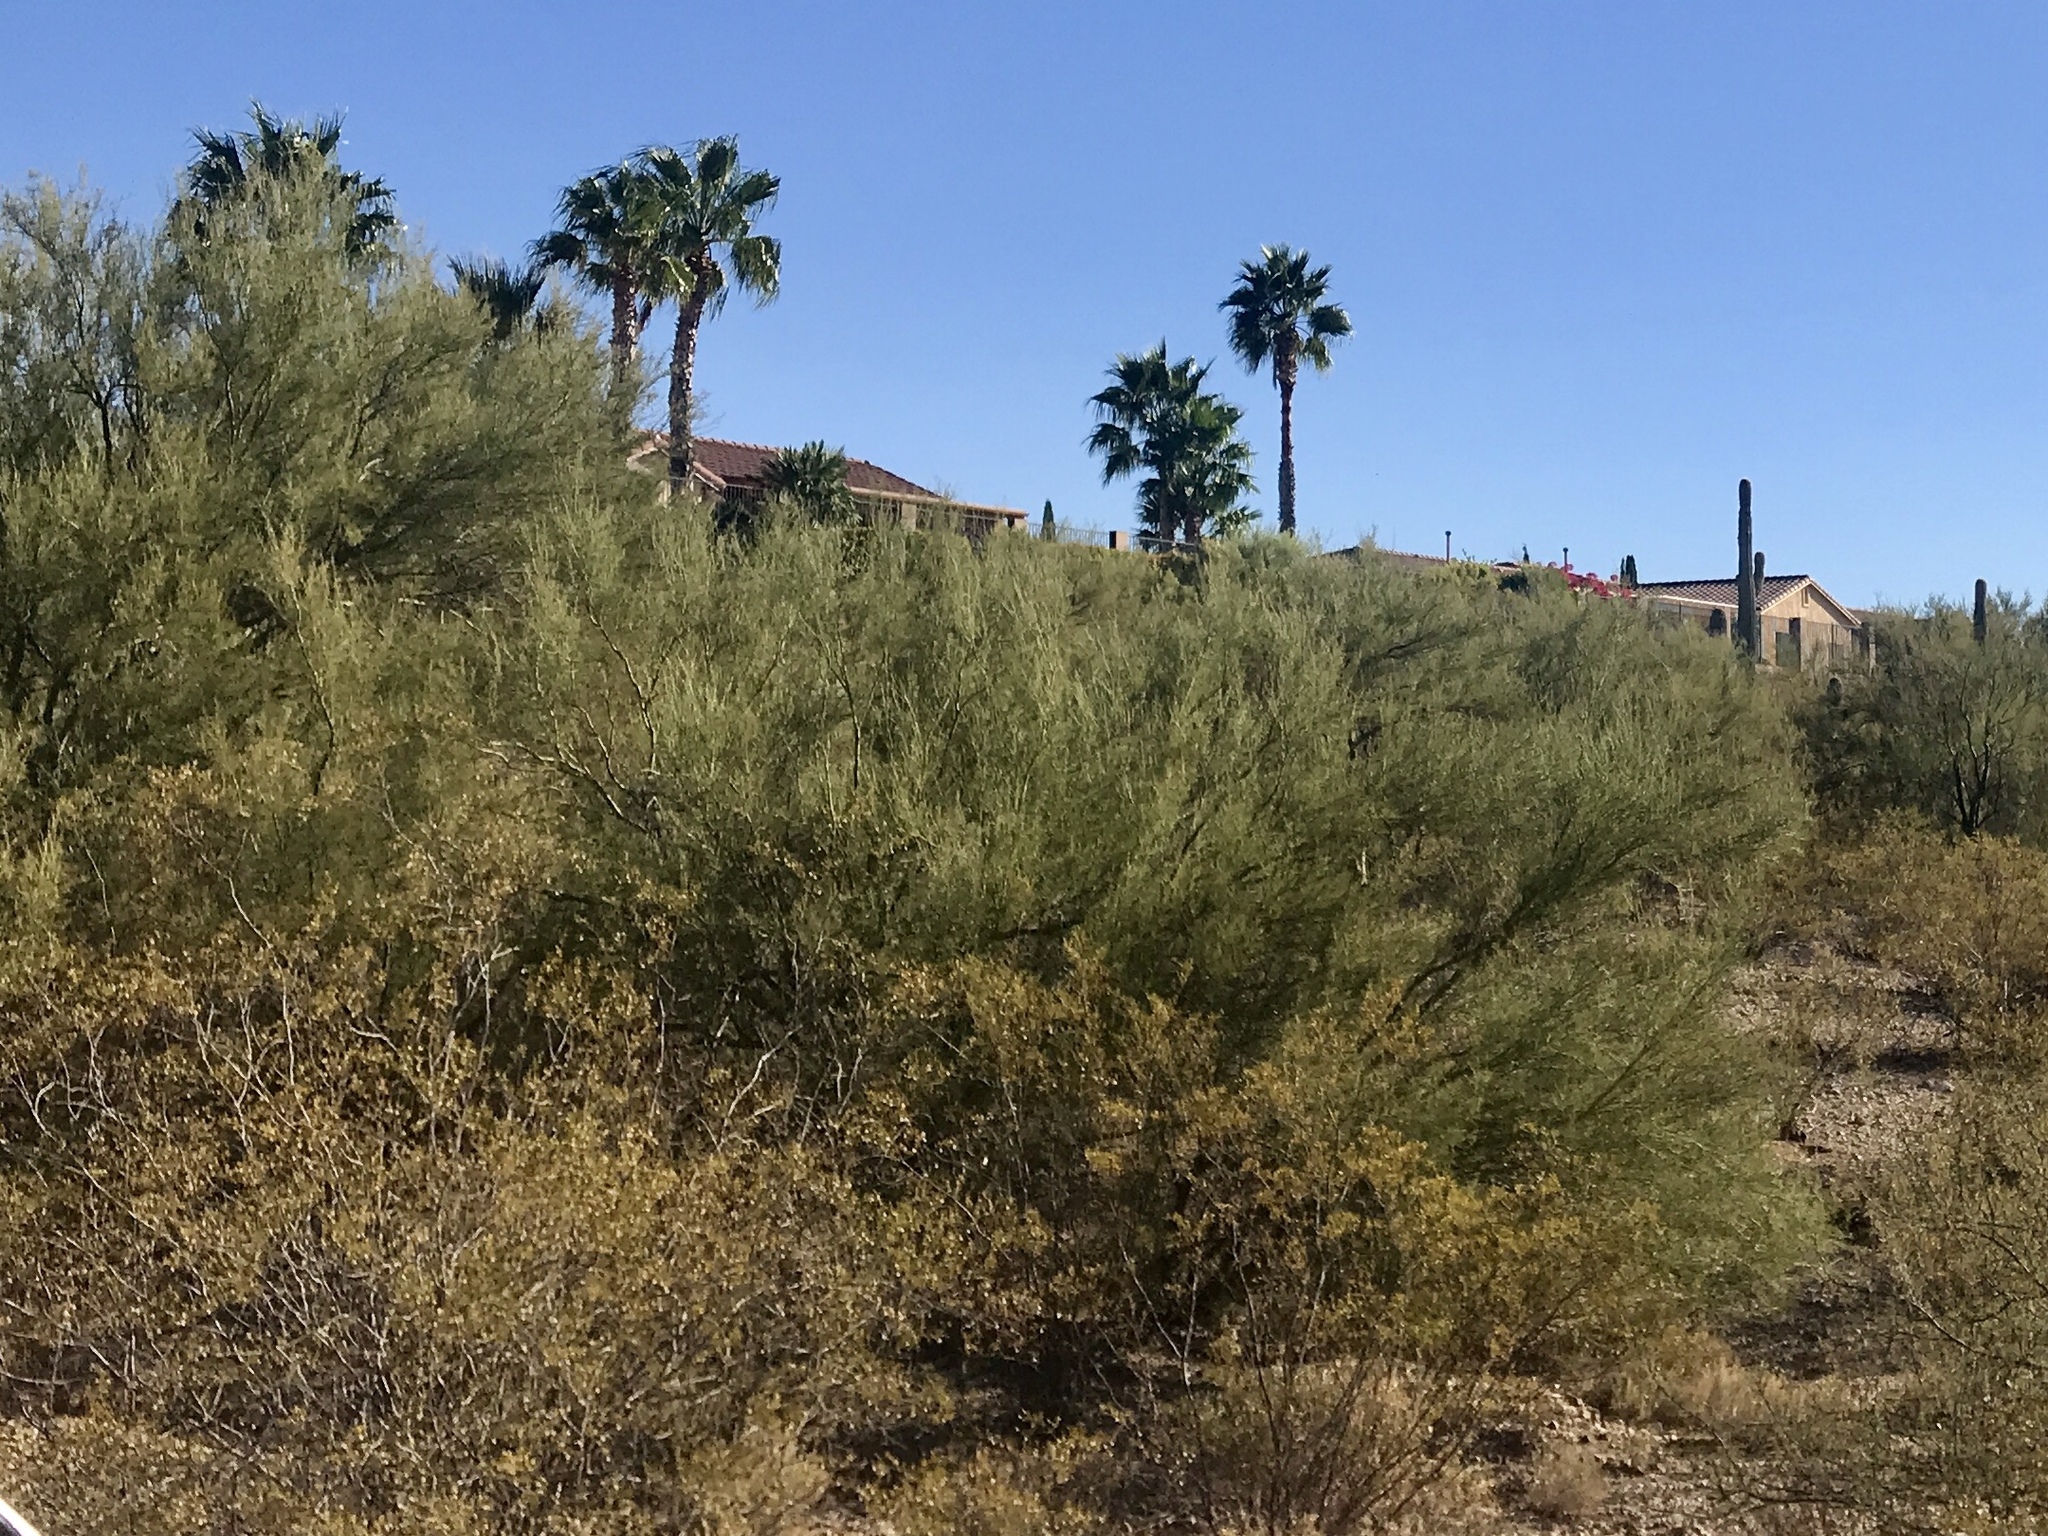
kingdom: Plantae
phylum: Tracheophyta
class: Magnoliopsida
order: Fabales
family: Fabaceae
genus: Parkinsonia
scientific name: Parkinsonia florida
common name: Blue paloverde
